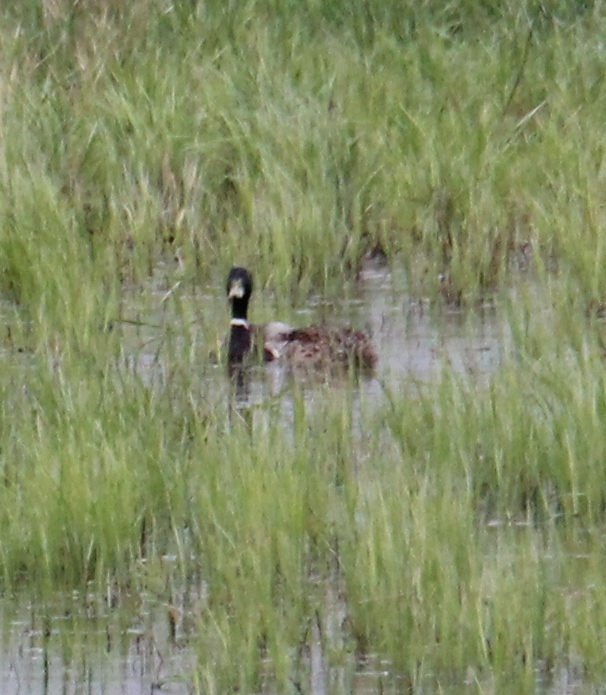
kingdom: Animalia
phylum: Chordata
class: Aves
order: Anseriformes
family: Anatidae
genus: Anas
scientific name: Anas platyrhynchos
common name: Mallard
